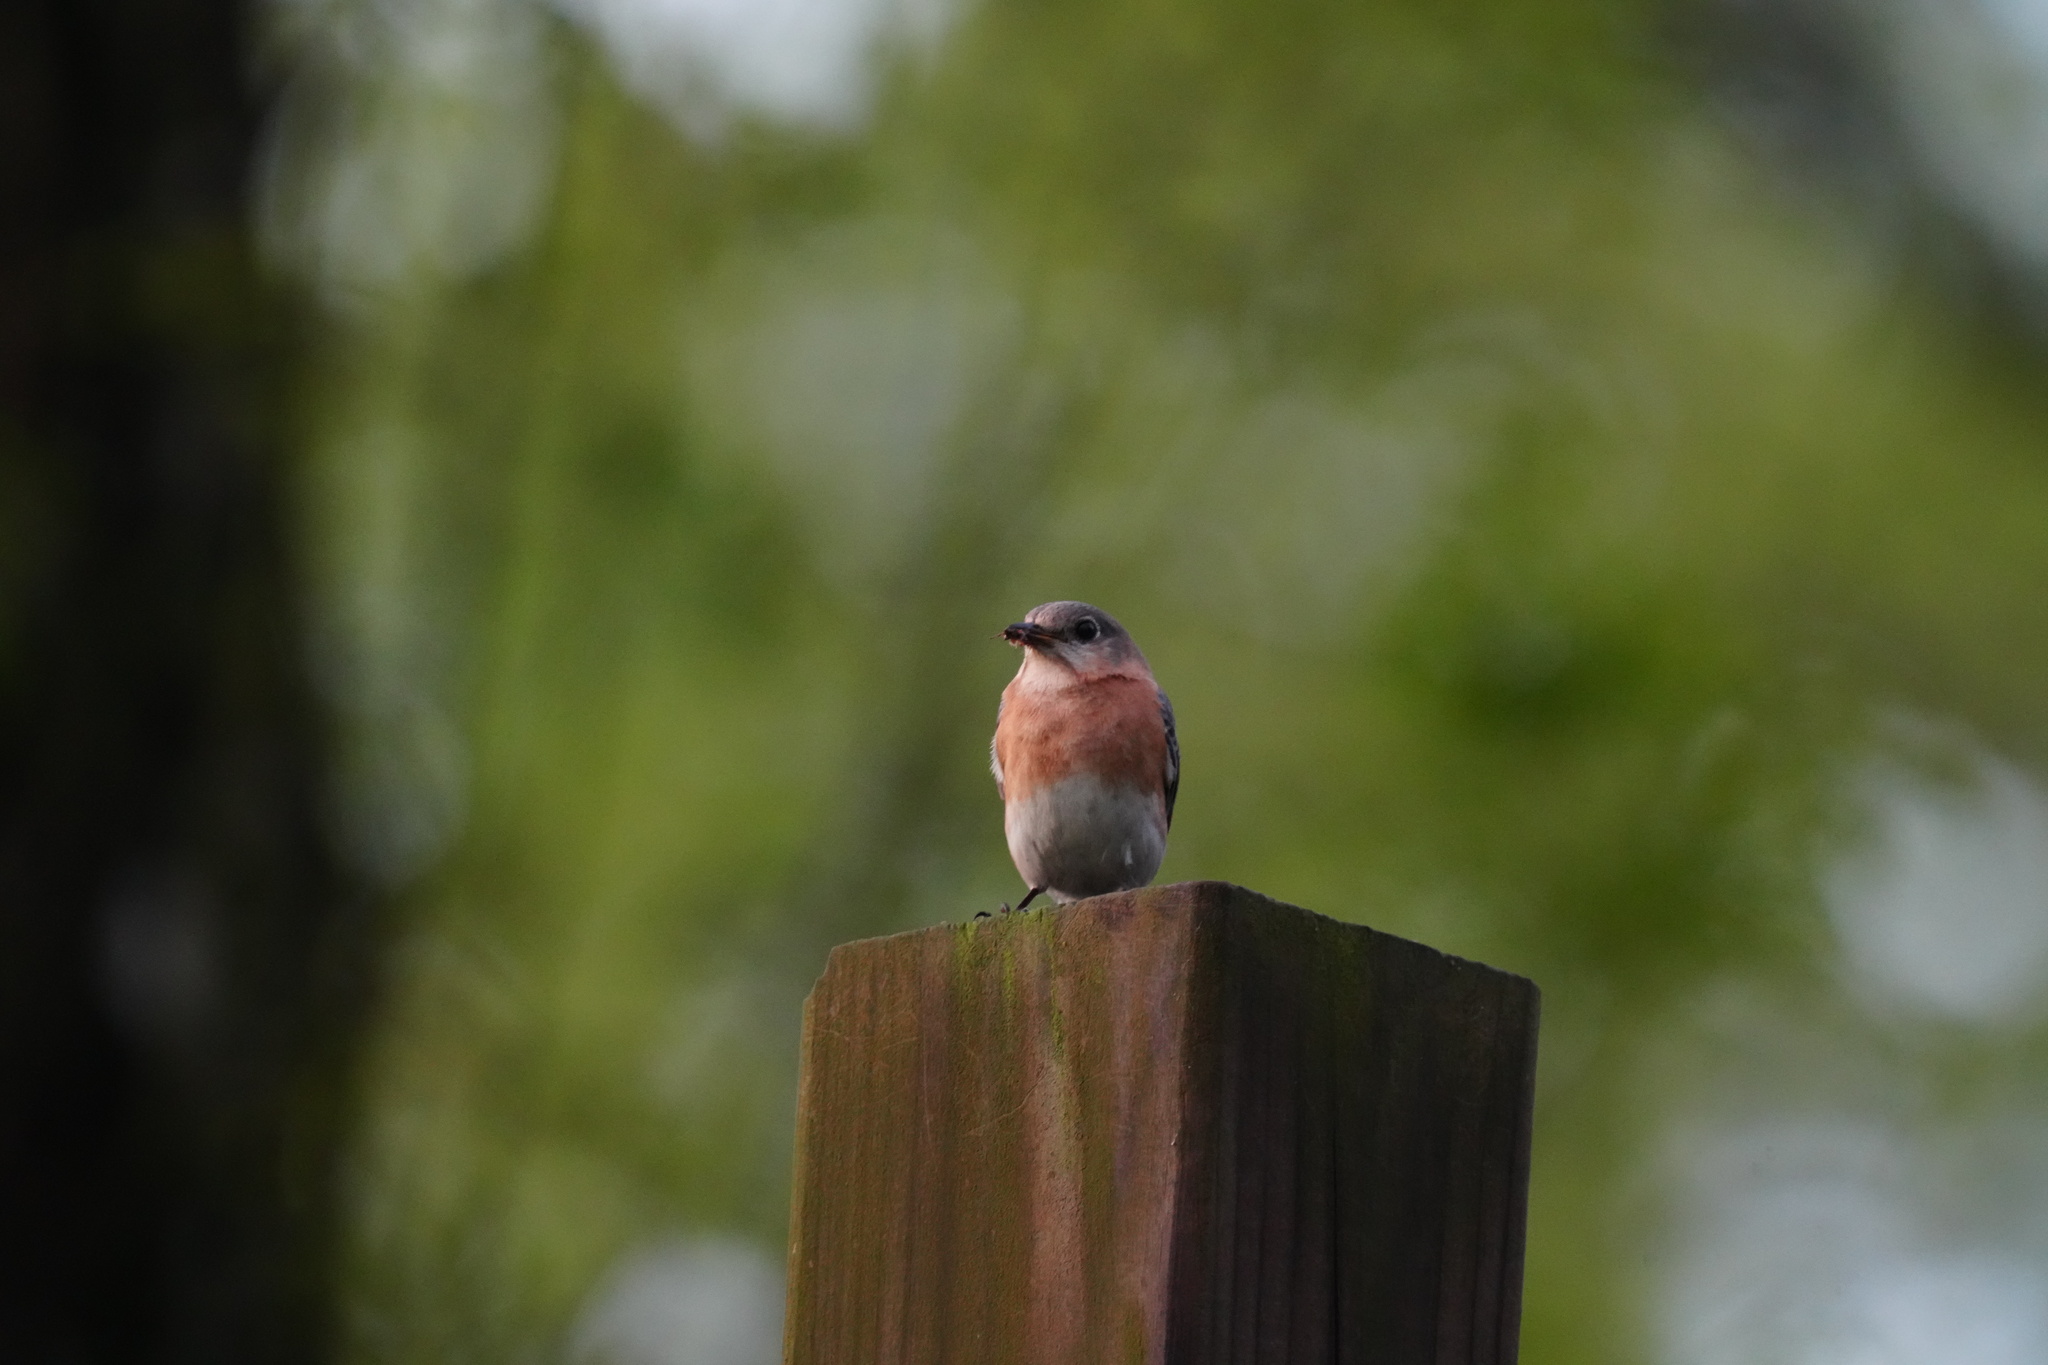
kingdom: Animalia
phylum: Chordata
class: Aves
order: Passeriformes
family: Turdidae
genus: Sialia
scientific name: Sialia sialis
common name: Eastern bluebird
